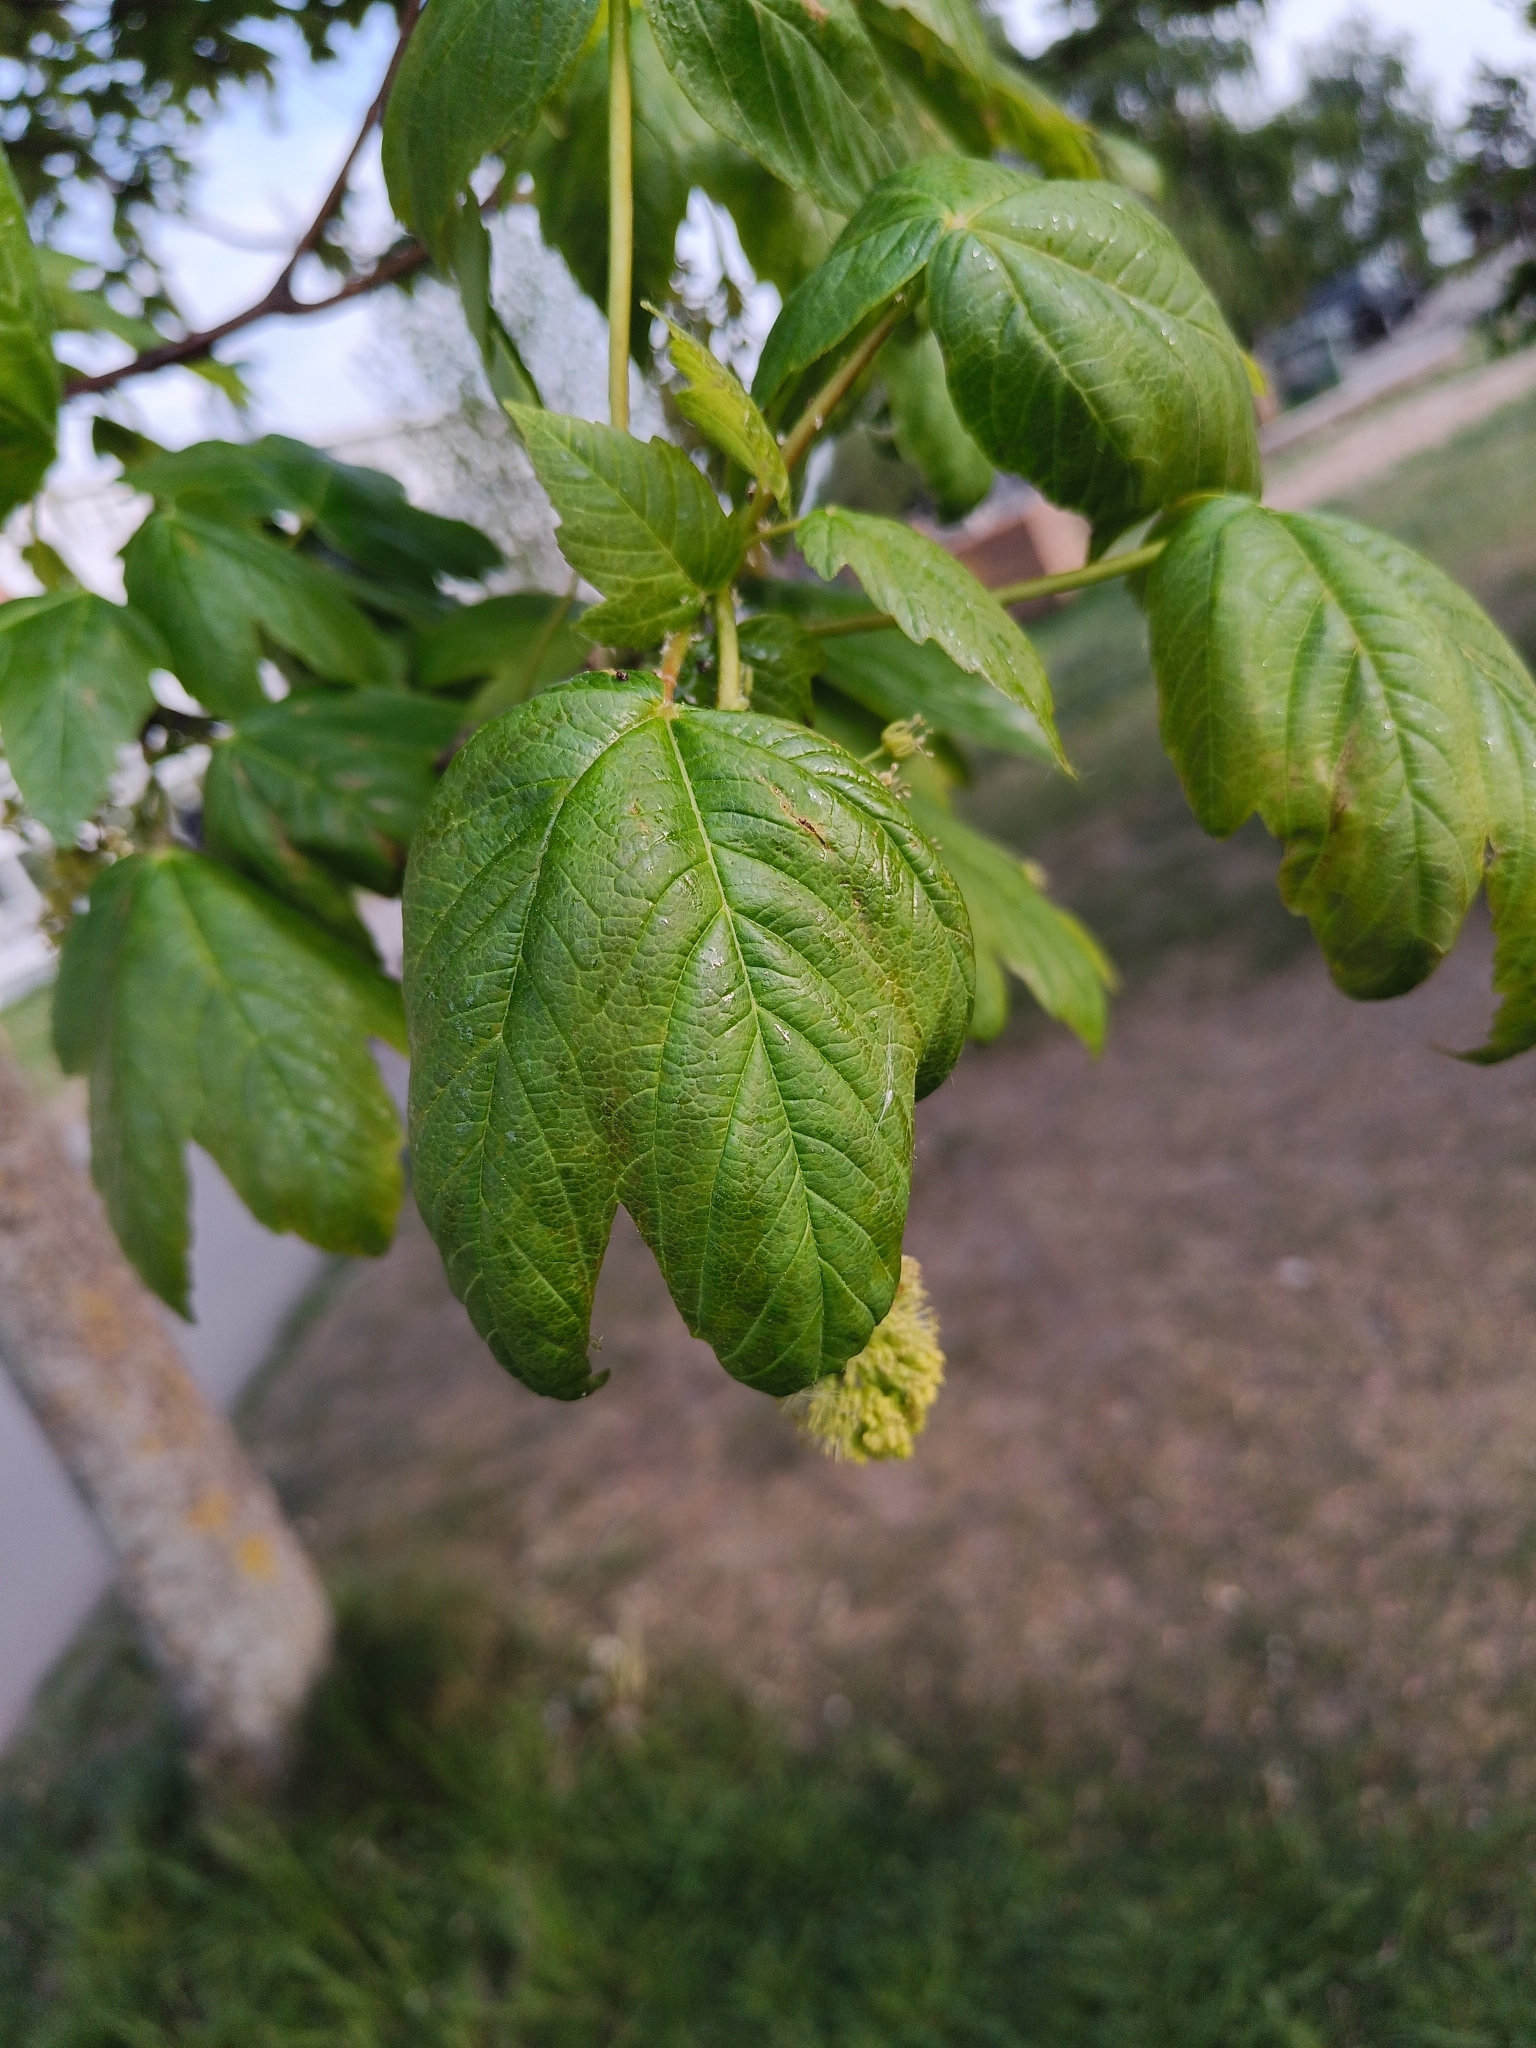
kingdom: Plantae
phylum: Tracheophyta
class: Magnoliopsida
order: Sapindales
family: Sapindaceae
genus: Acer
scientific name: Acer pseudoplatanus
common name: Sycamore
